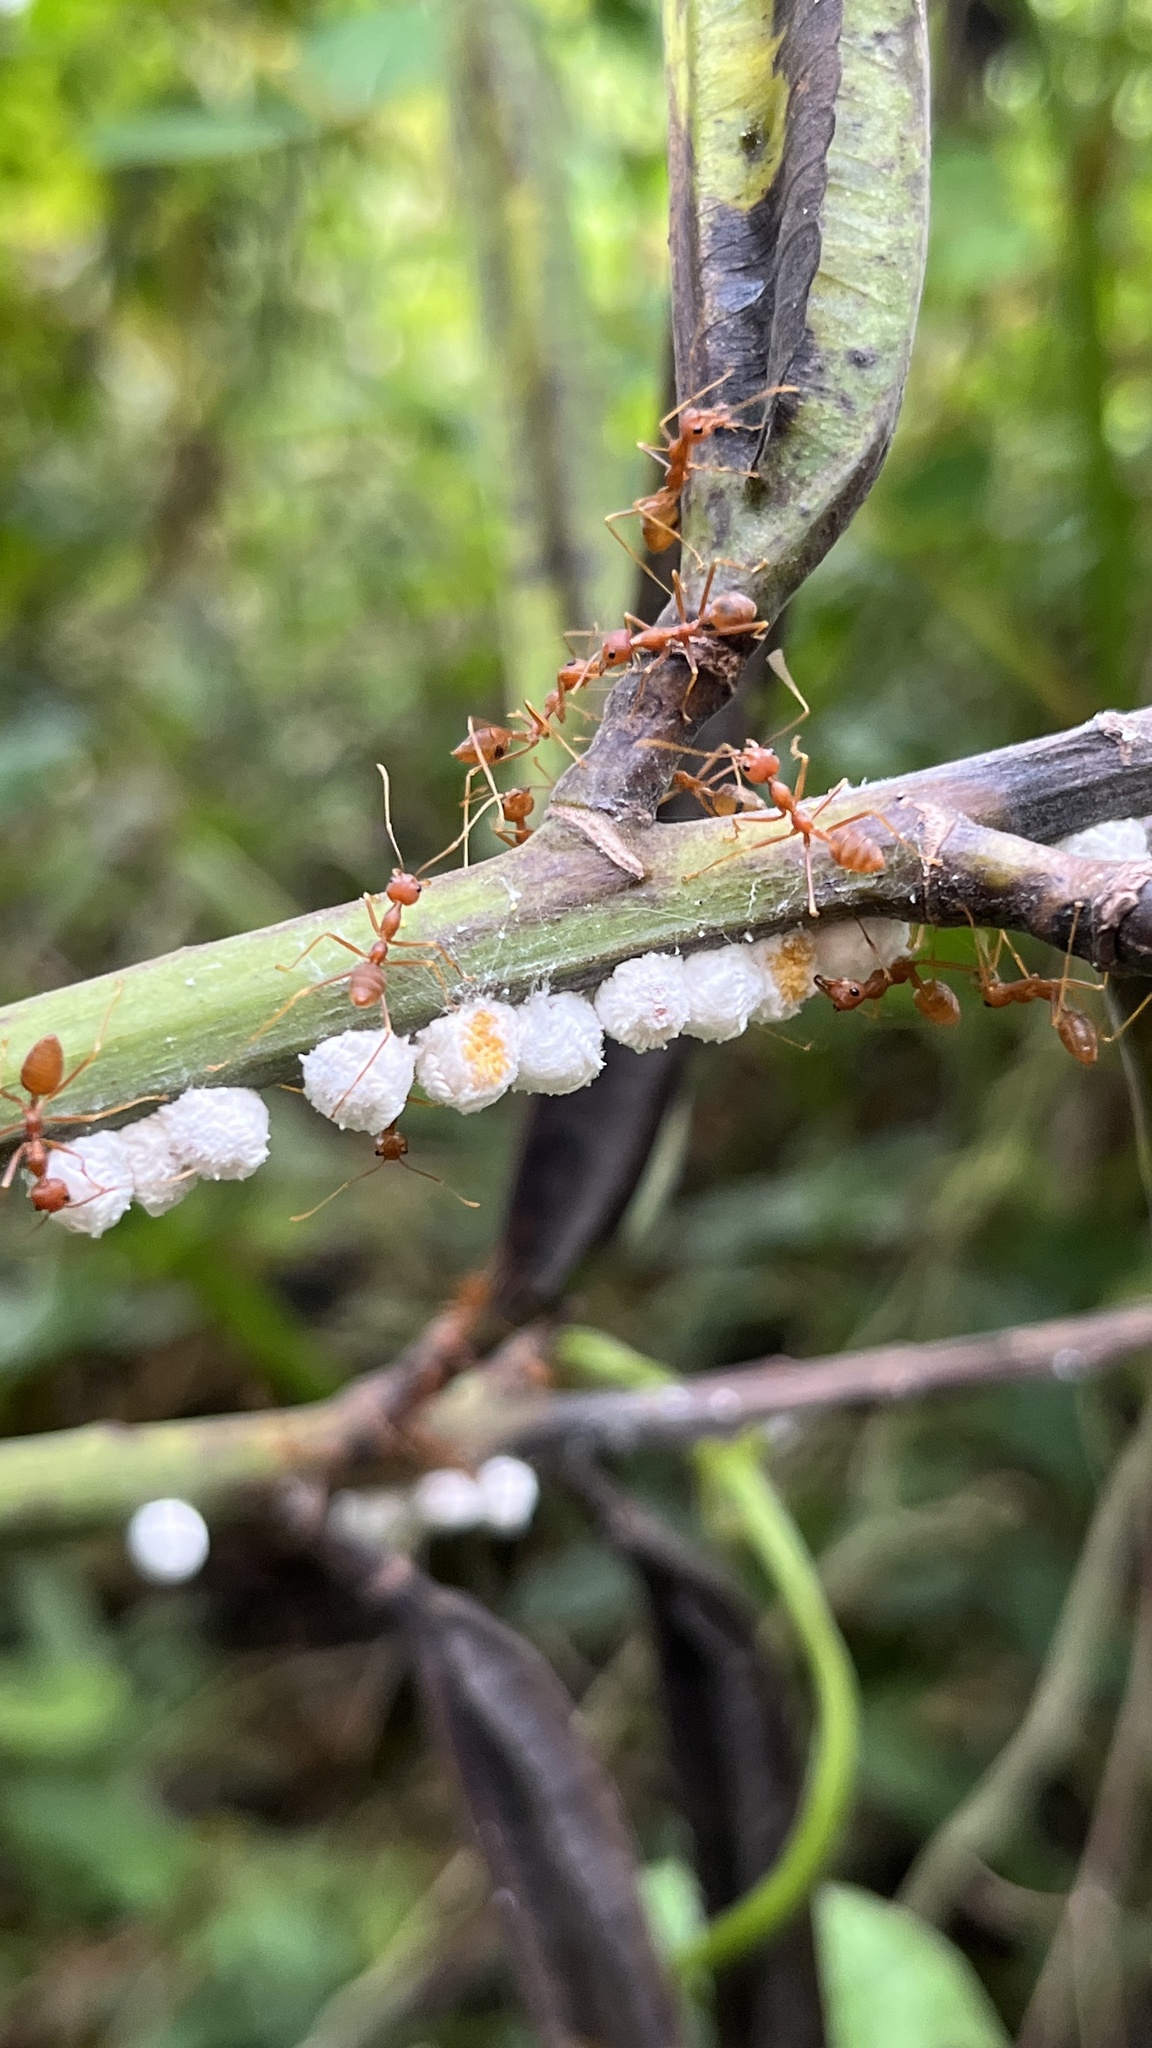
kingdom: Animalia
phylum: Arthropoda
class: Insecta
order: Hymenoptera
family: Formicidae
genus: Oecophylla
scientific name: Oecophylla smaragdina
